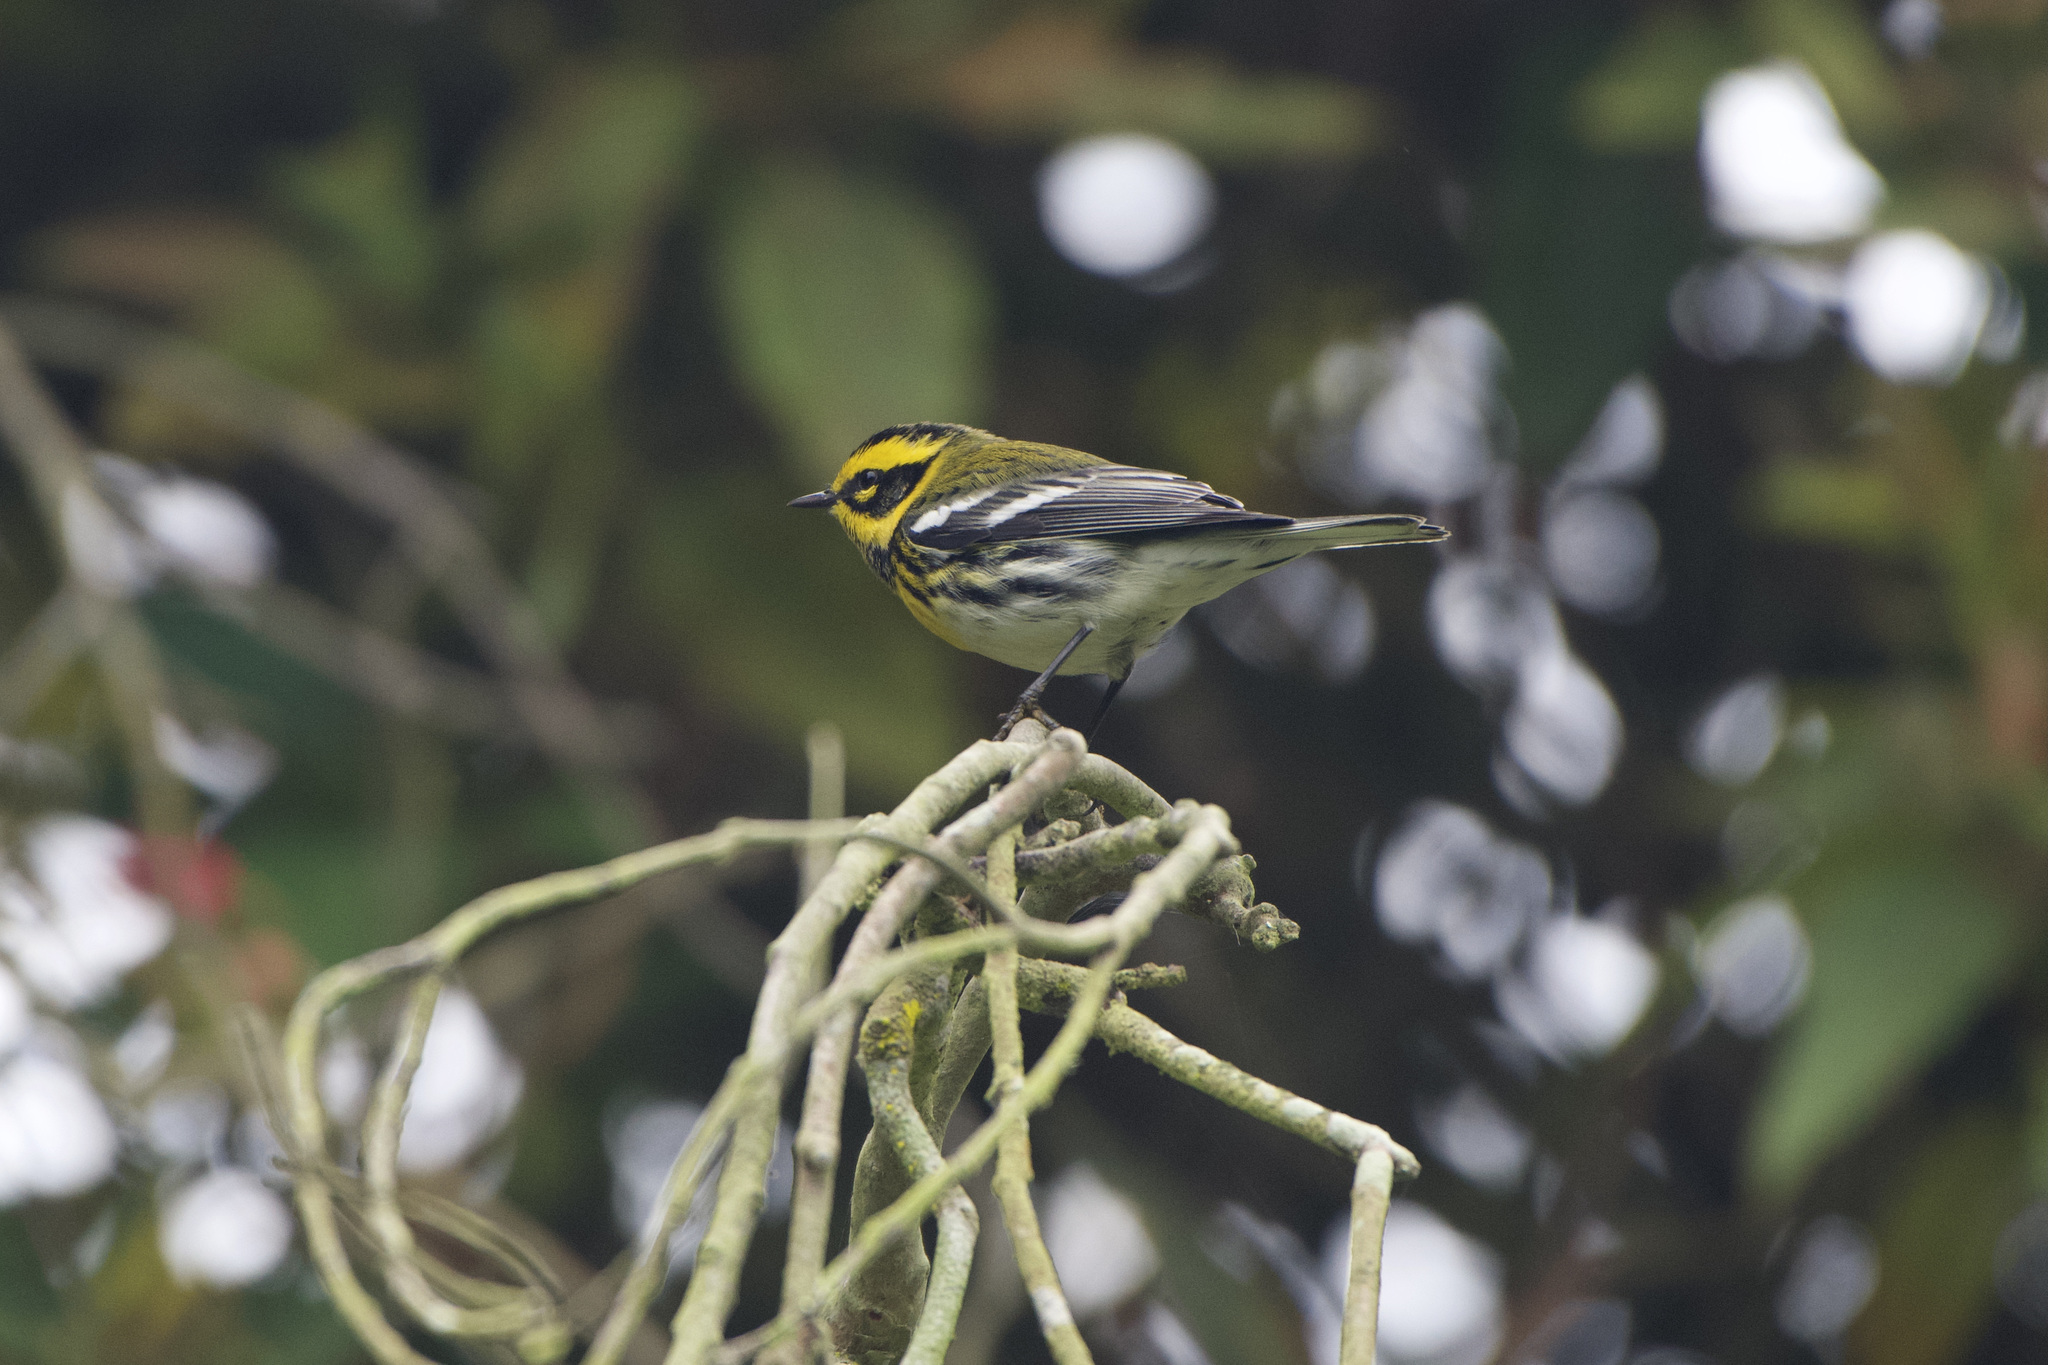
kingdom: Animalia
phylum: Chordata
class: Aves
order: Passeriformes
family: Parulidae
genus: Setophaga
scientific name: Setophaga townsendi
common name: Townsend's warbler
